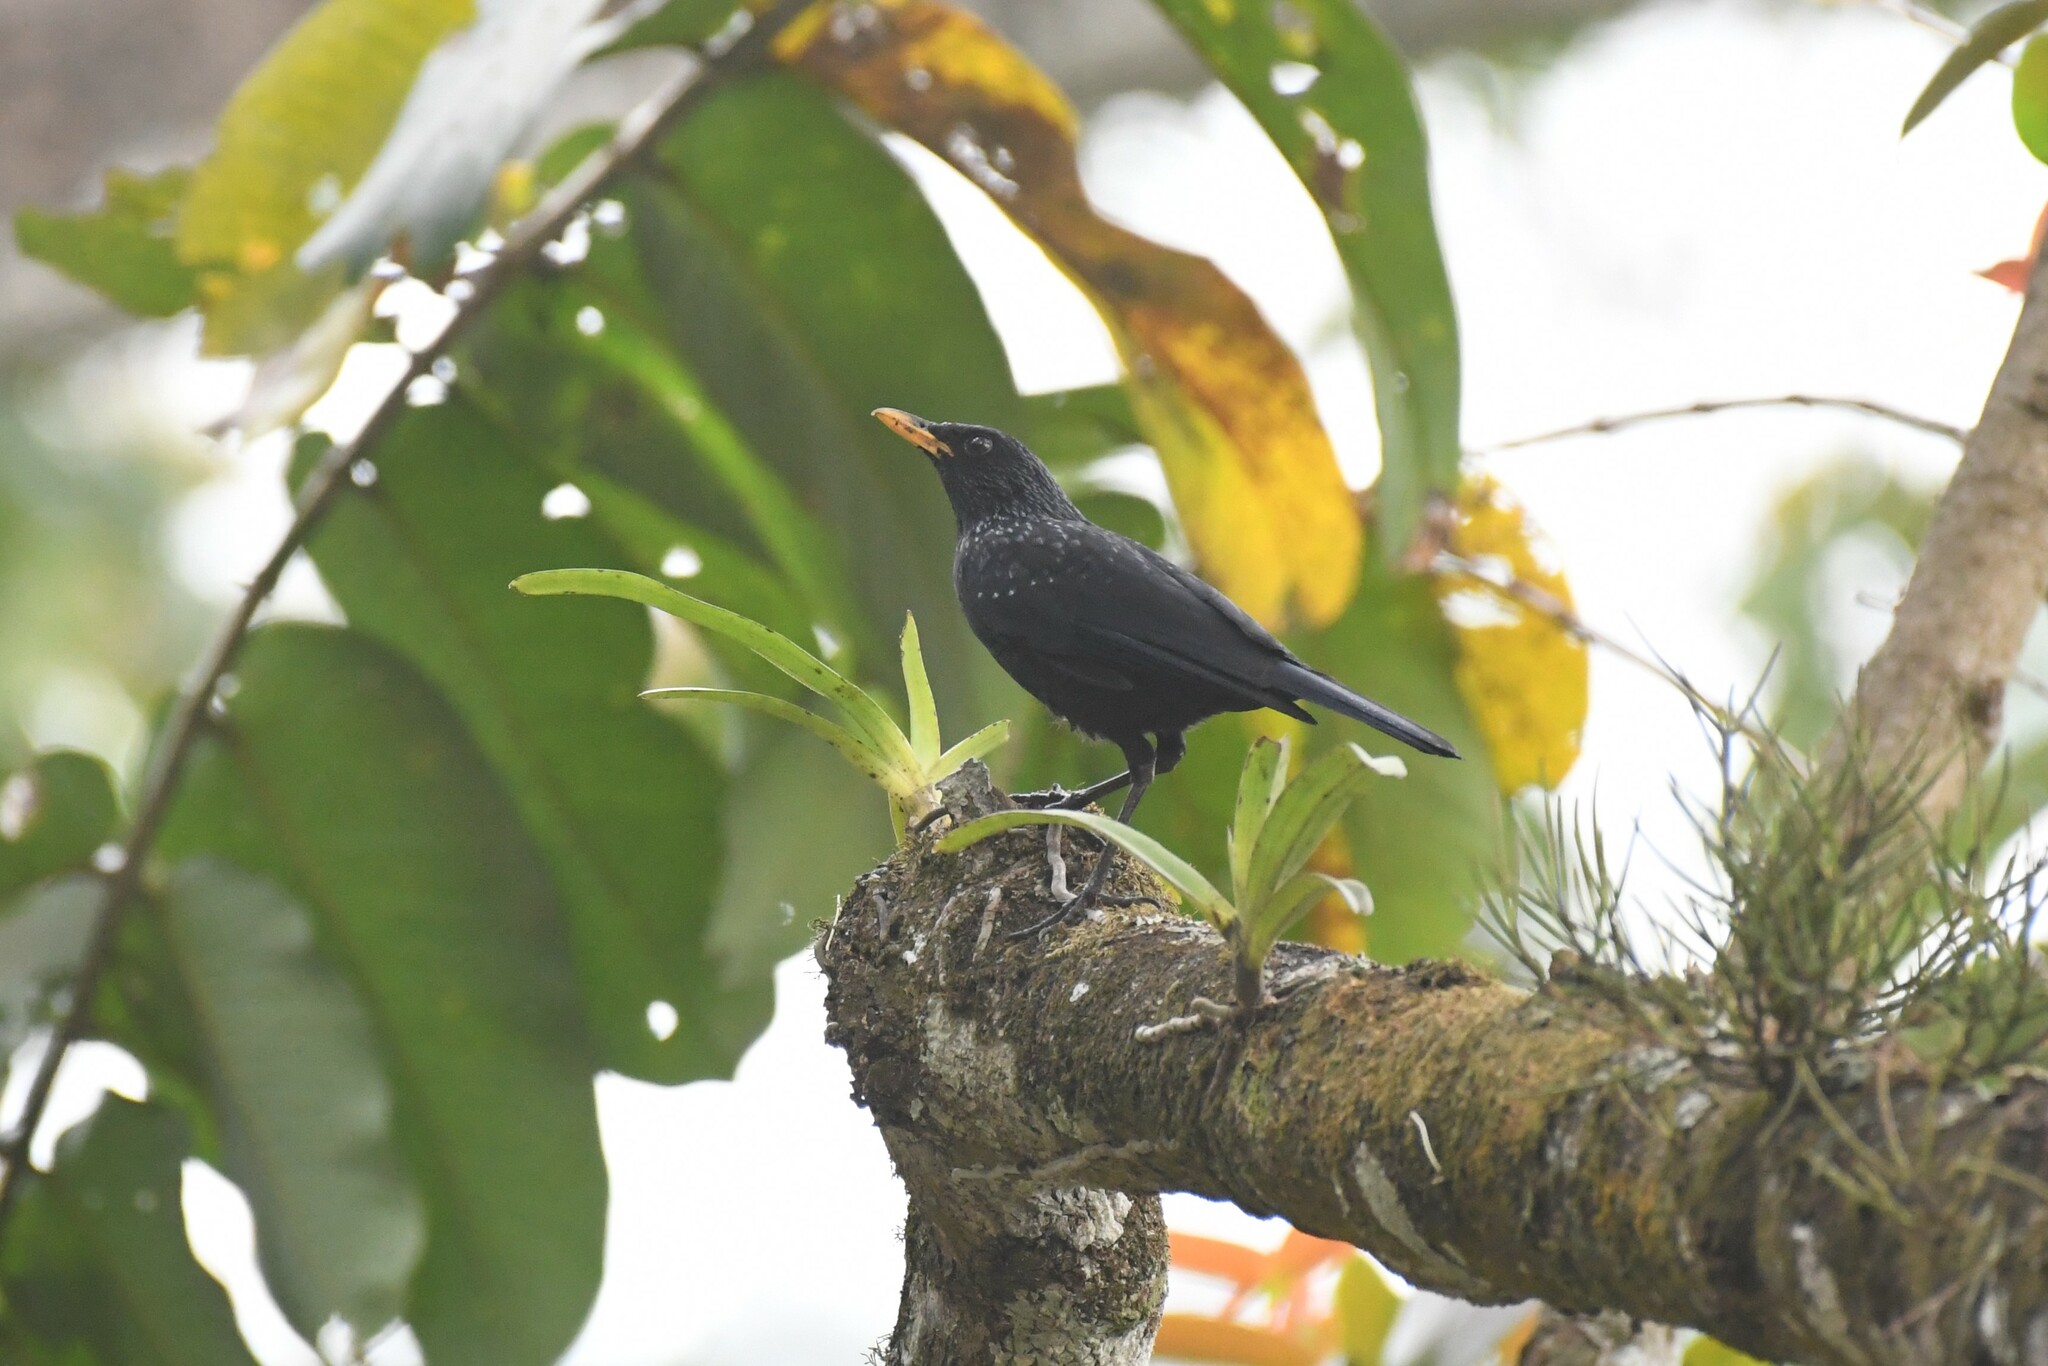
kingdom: Animalia
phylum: Chordata
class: Aves
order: Passeriformes
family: Muscicapidae
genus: Myophonus
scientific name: Myophonus caeruleus
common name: Blue whistling-thrush
